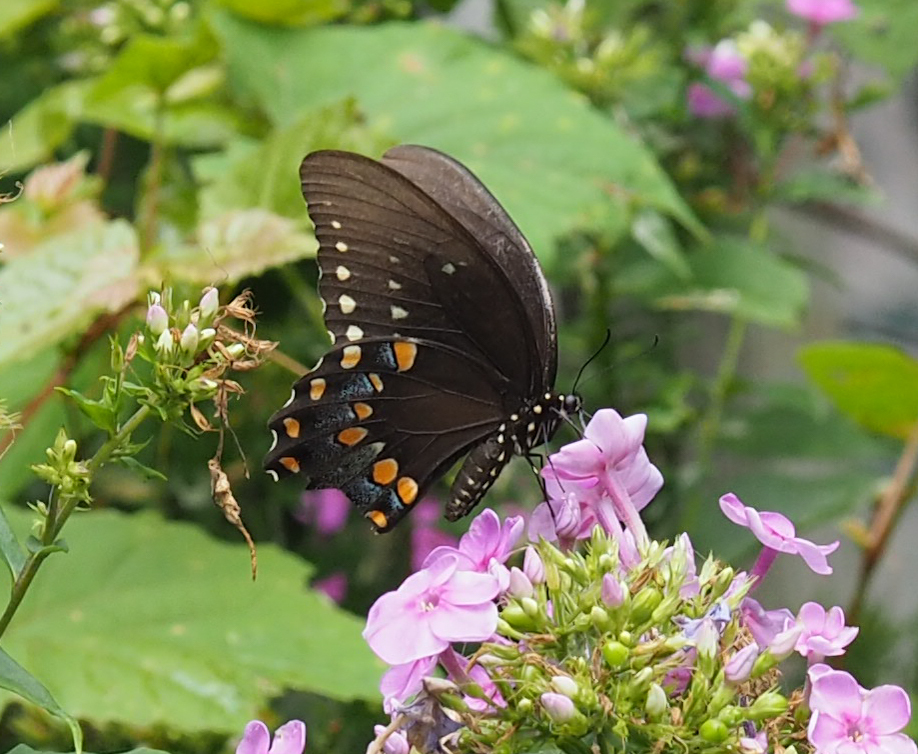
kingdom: Animalia
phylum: Arthropoda
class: Insecta
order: Lepidoptera
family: Papilionidae
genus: Papilio
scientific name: Papilio troilus
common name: Spicebush swallowtail
